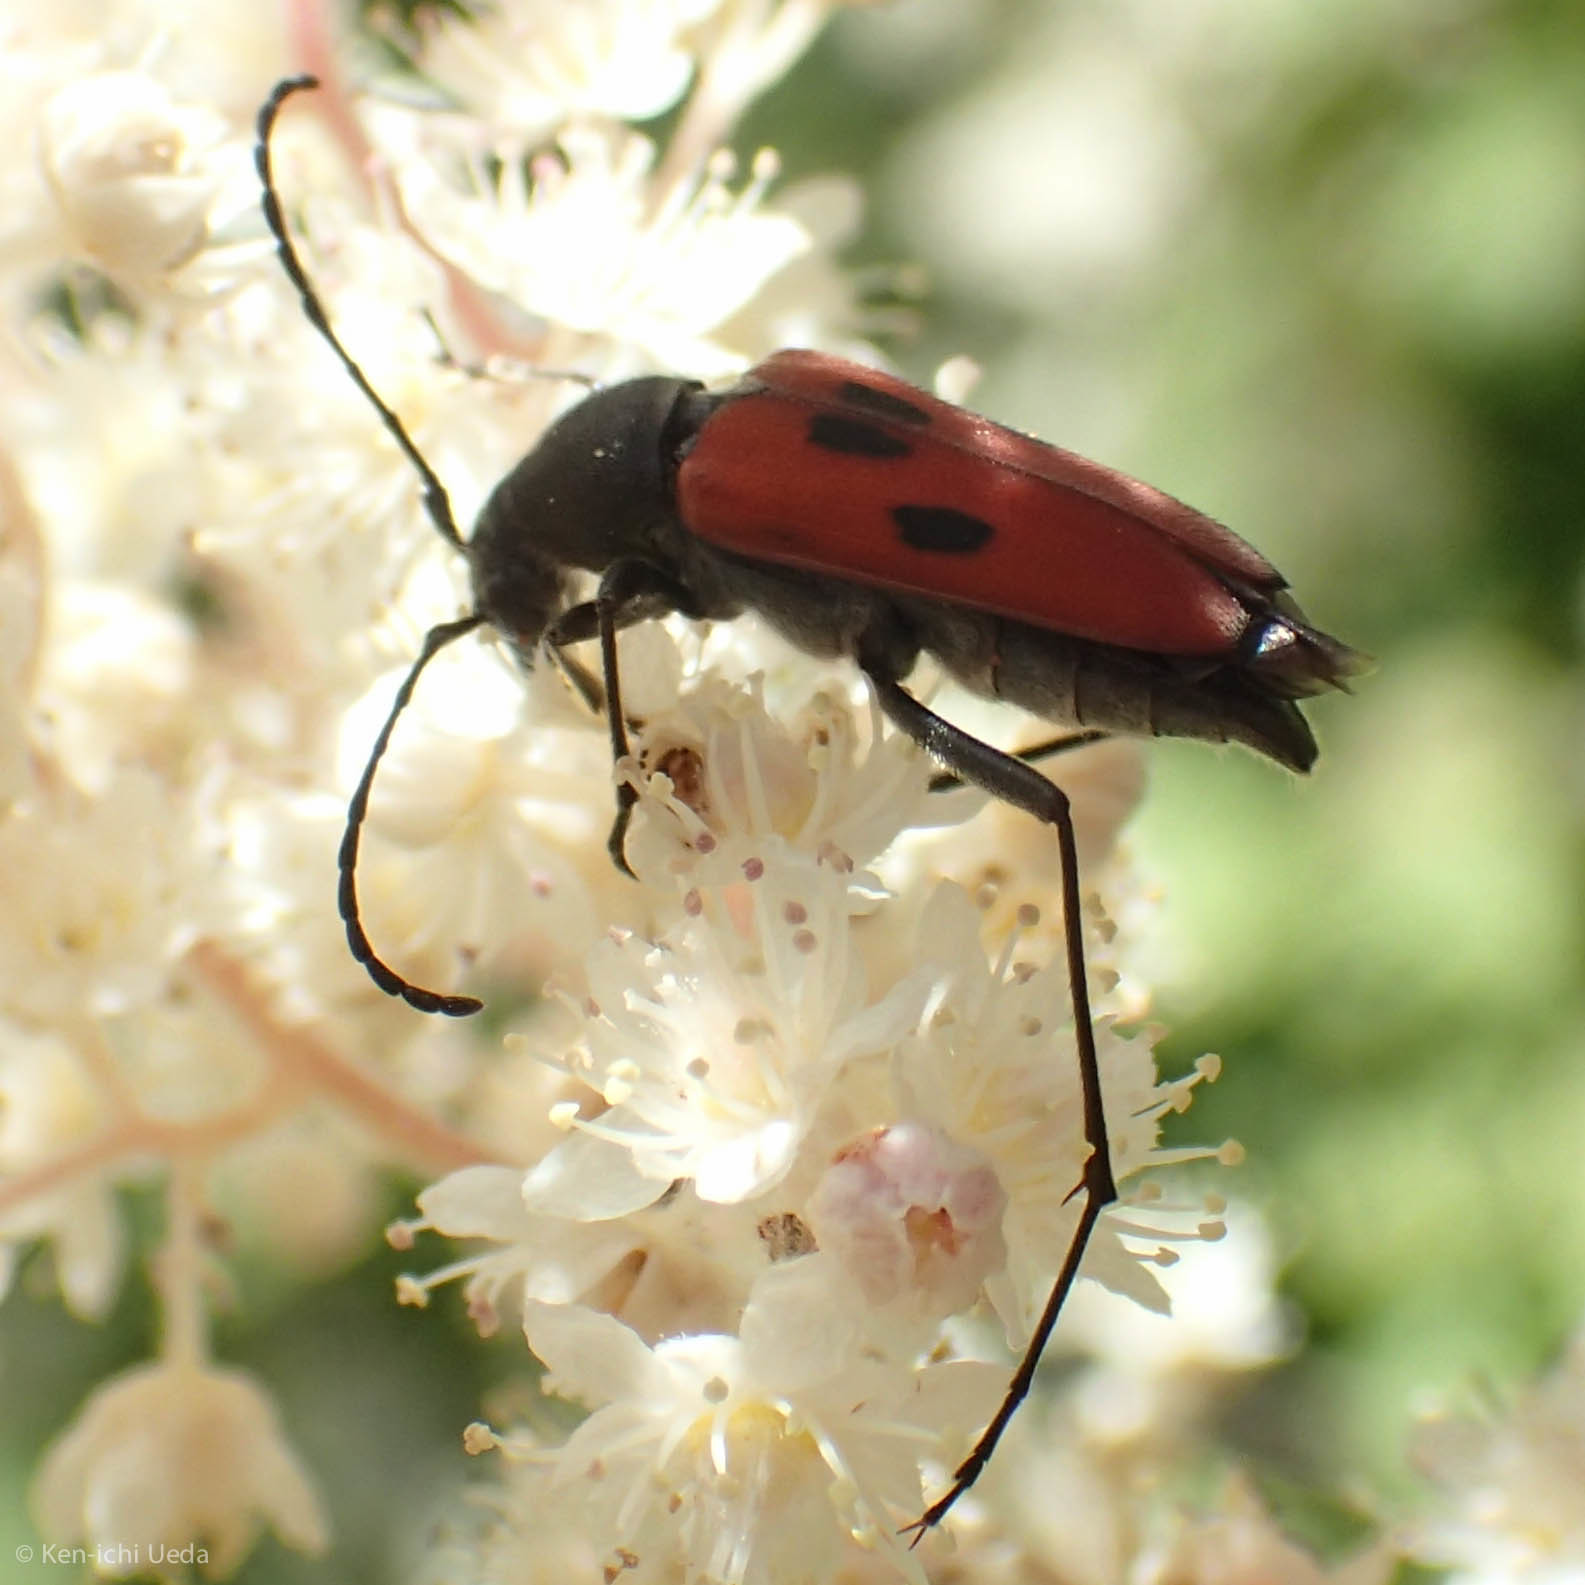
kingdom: Animalia
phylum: Arthropoda
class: Insecta
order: Coleoptera
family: Cerambycidae
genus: Anastrangalia
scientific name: Anastrangalia laetifica
